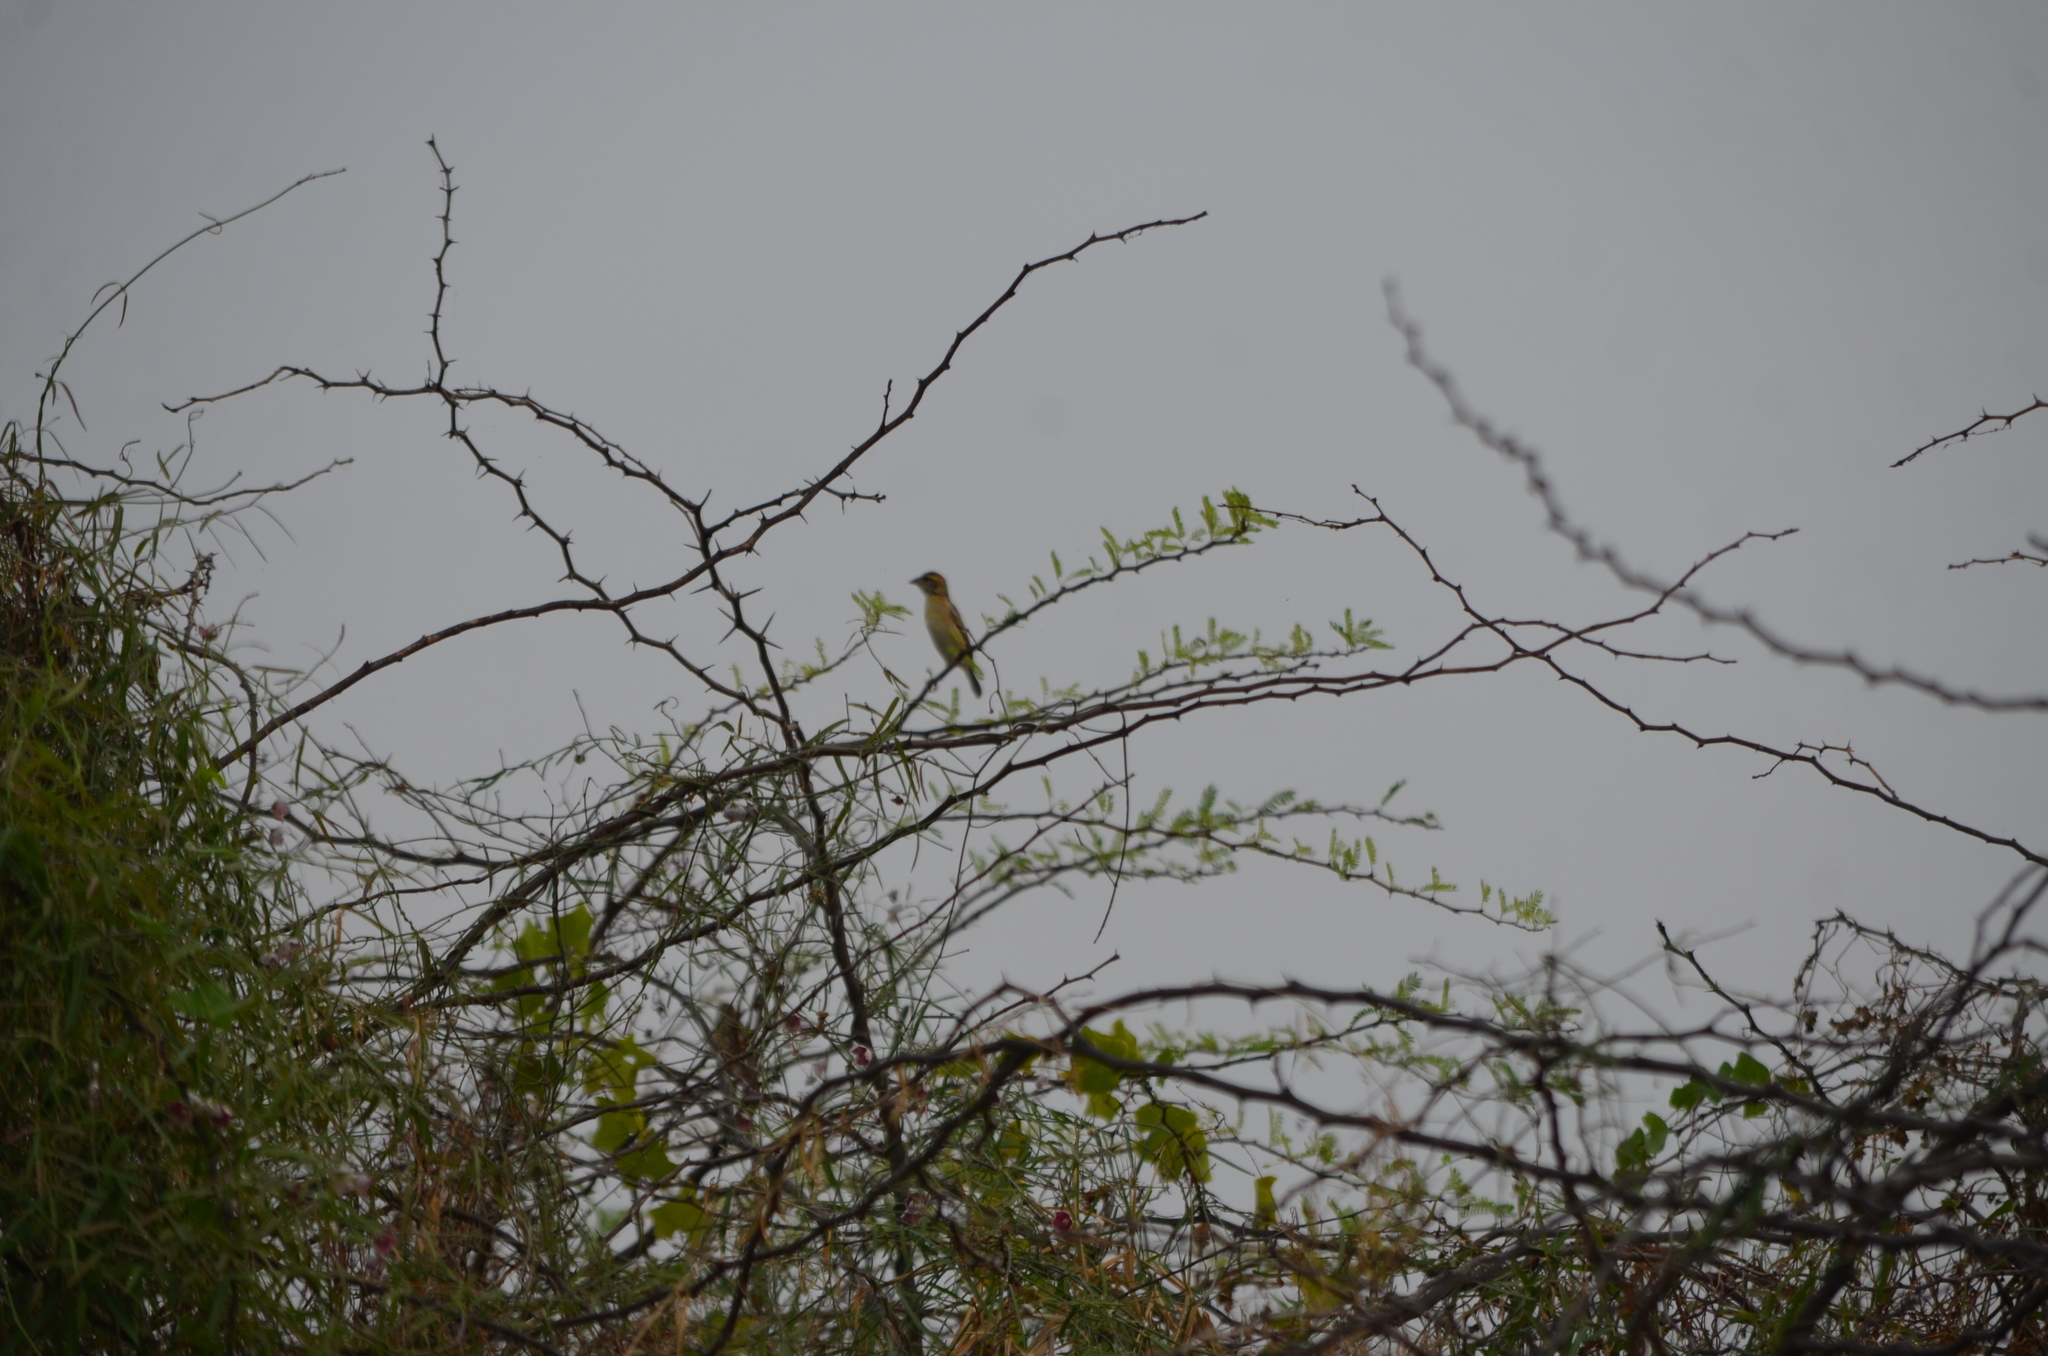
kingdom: Animalia
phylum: Chordata
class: Aves
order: Passeriformes
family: Ploceidae
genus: Ploceus
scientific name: Ploceus philippinus
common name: Baya weaver
